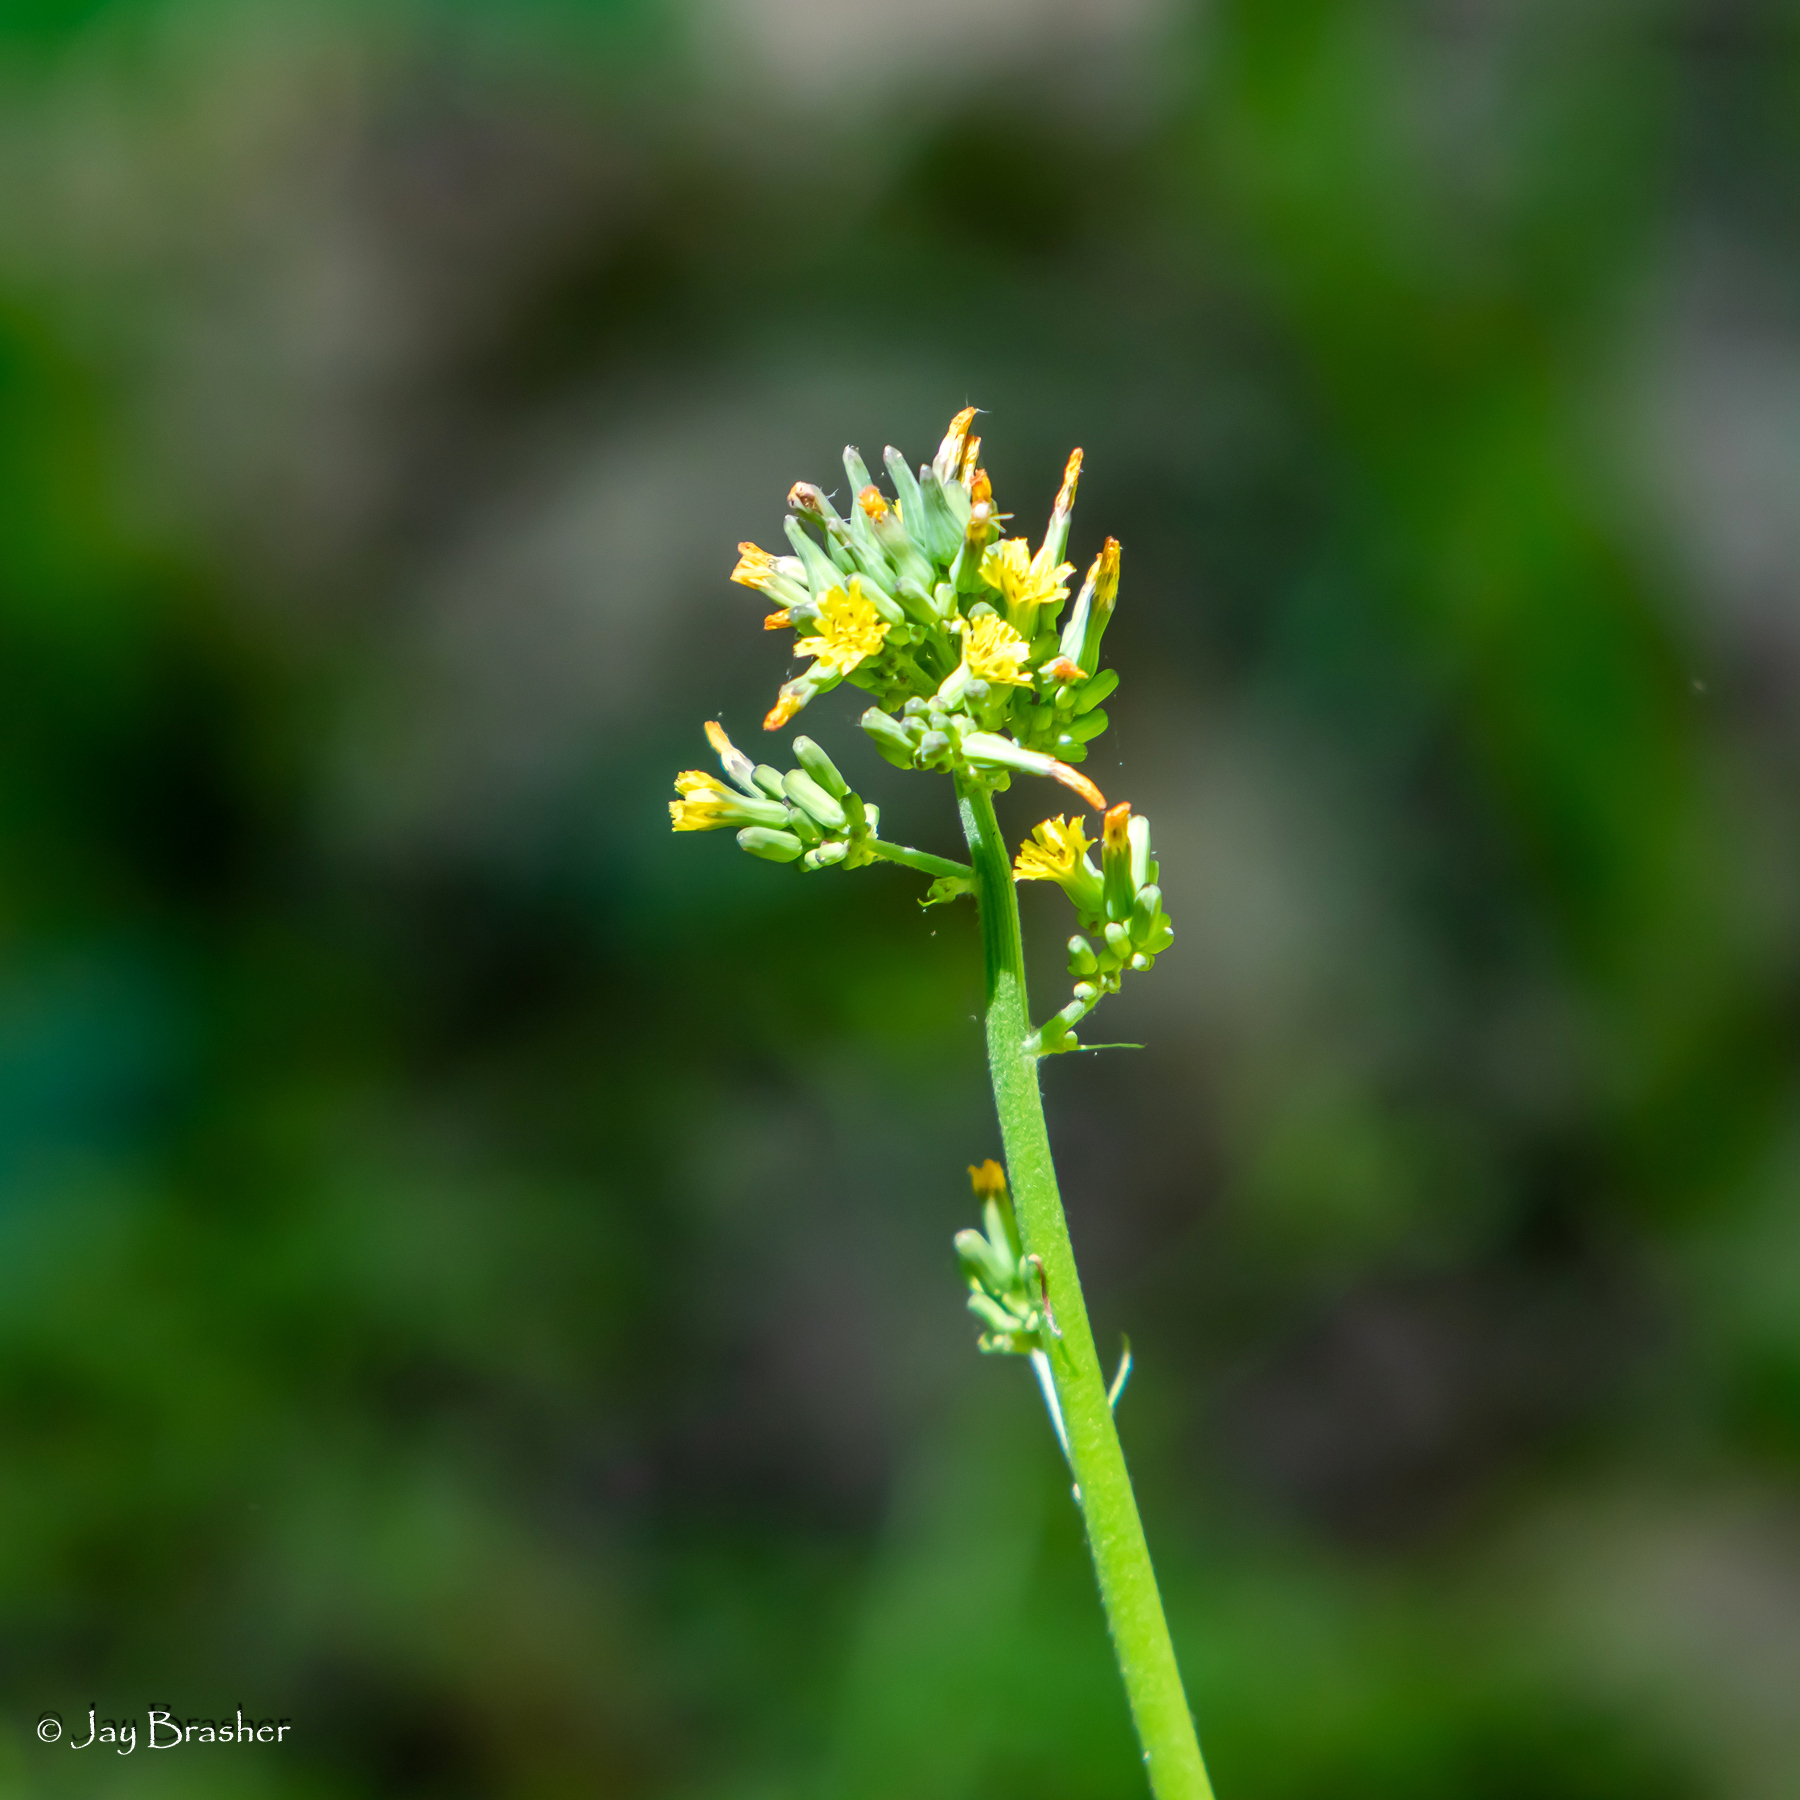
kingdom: Plantae
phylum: Tracheophyta
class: Magnoliopsida
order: Asterales
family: Asteraceae
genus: Youngia
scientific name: Youngia japonica
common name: Oriental false hawksbeard
